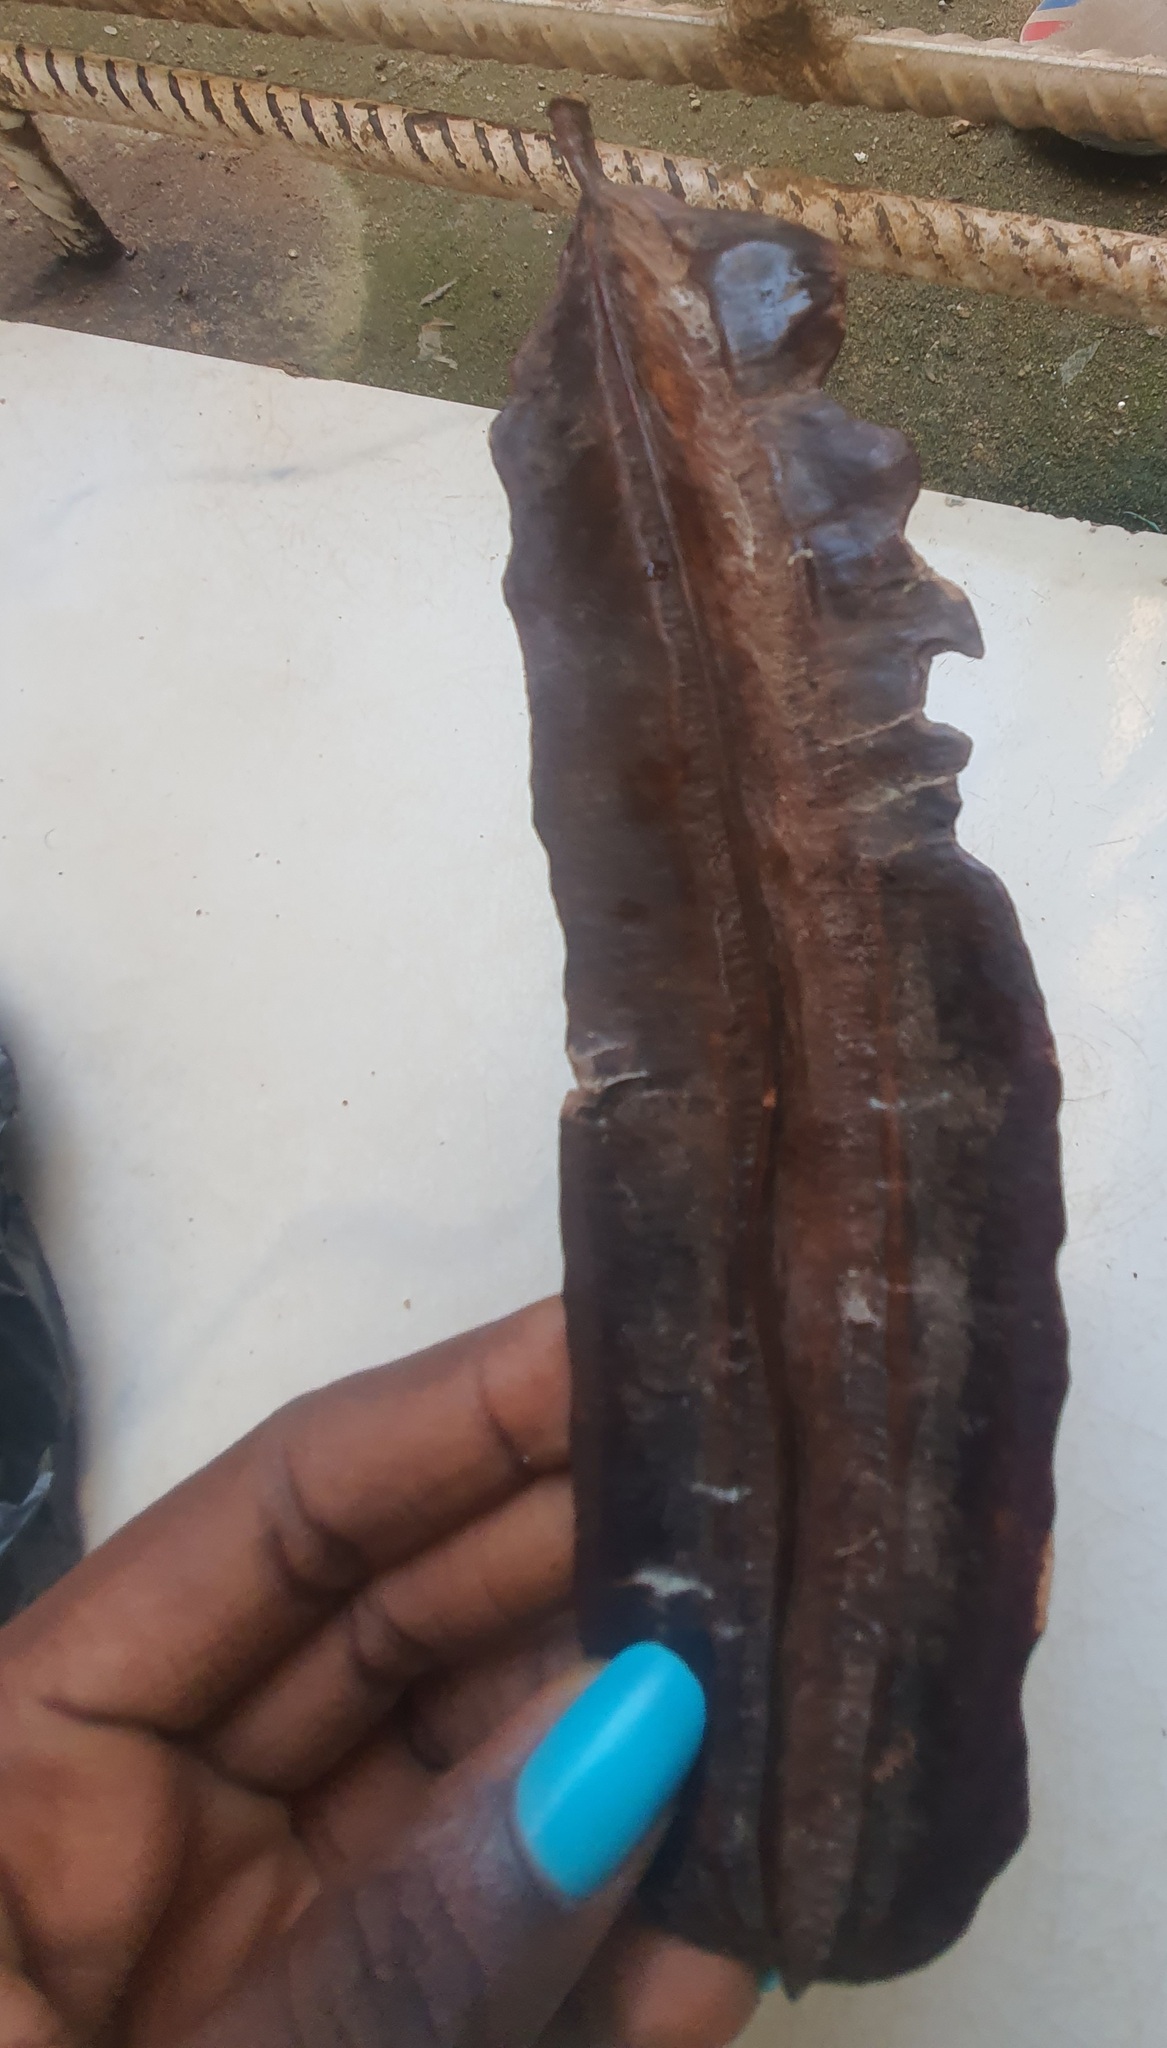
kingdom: Plantae
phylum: Tracheophyta
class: Magnoliopsida
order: Fabales
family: Fabaceae
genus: Tetrapleura
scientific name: Tetrapleura tetraptera
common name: Aridan
